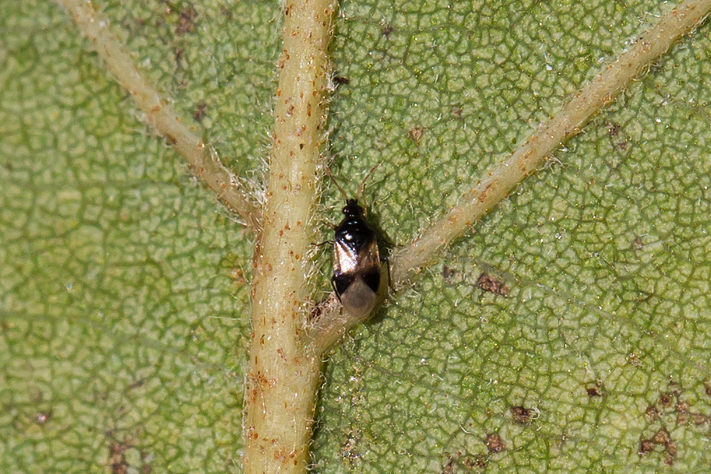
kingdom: Animalia
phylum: Arthropoda
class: Insecta
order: Hemiptera
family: Anthocoridae
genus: Orius
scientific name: Orius insidiosus
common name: Insidious flower bug
